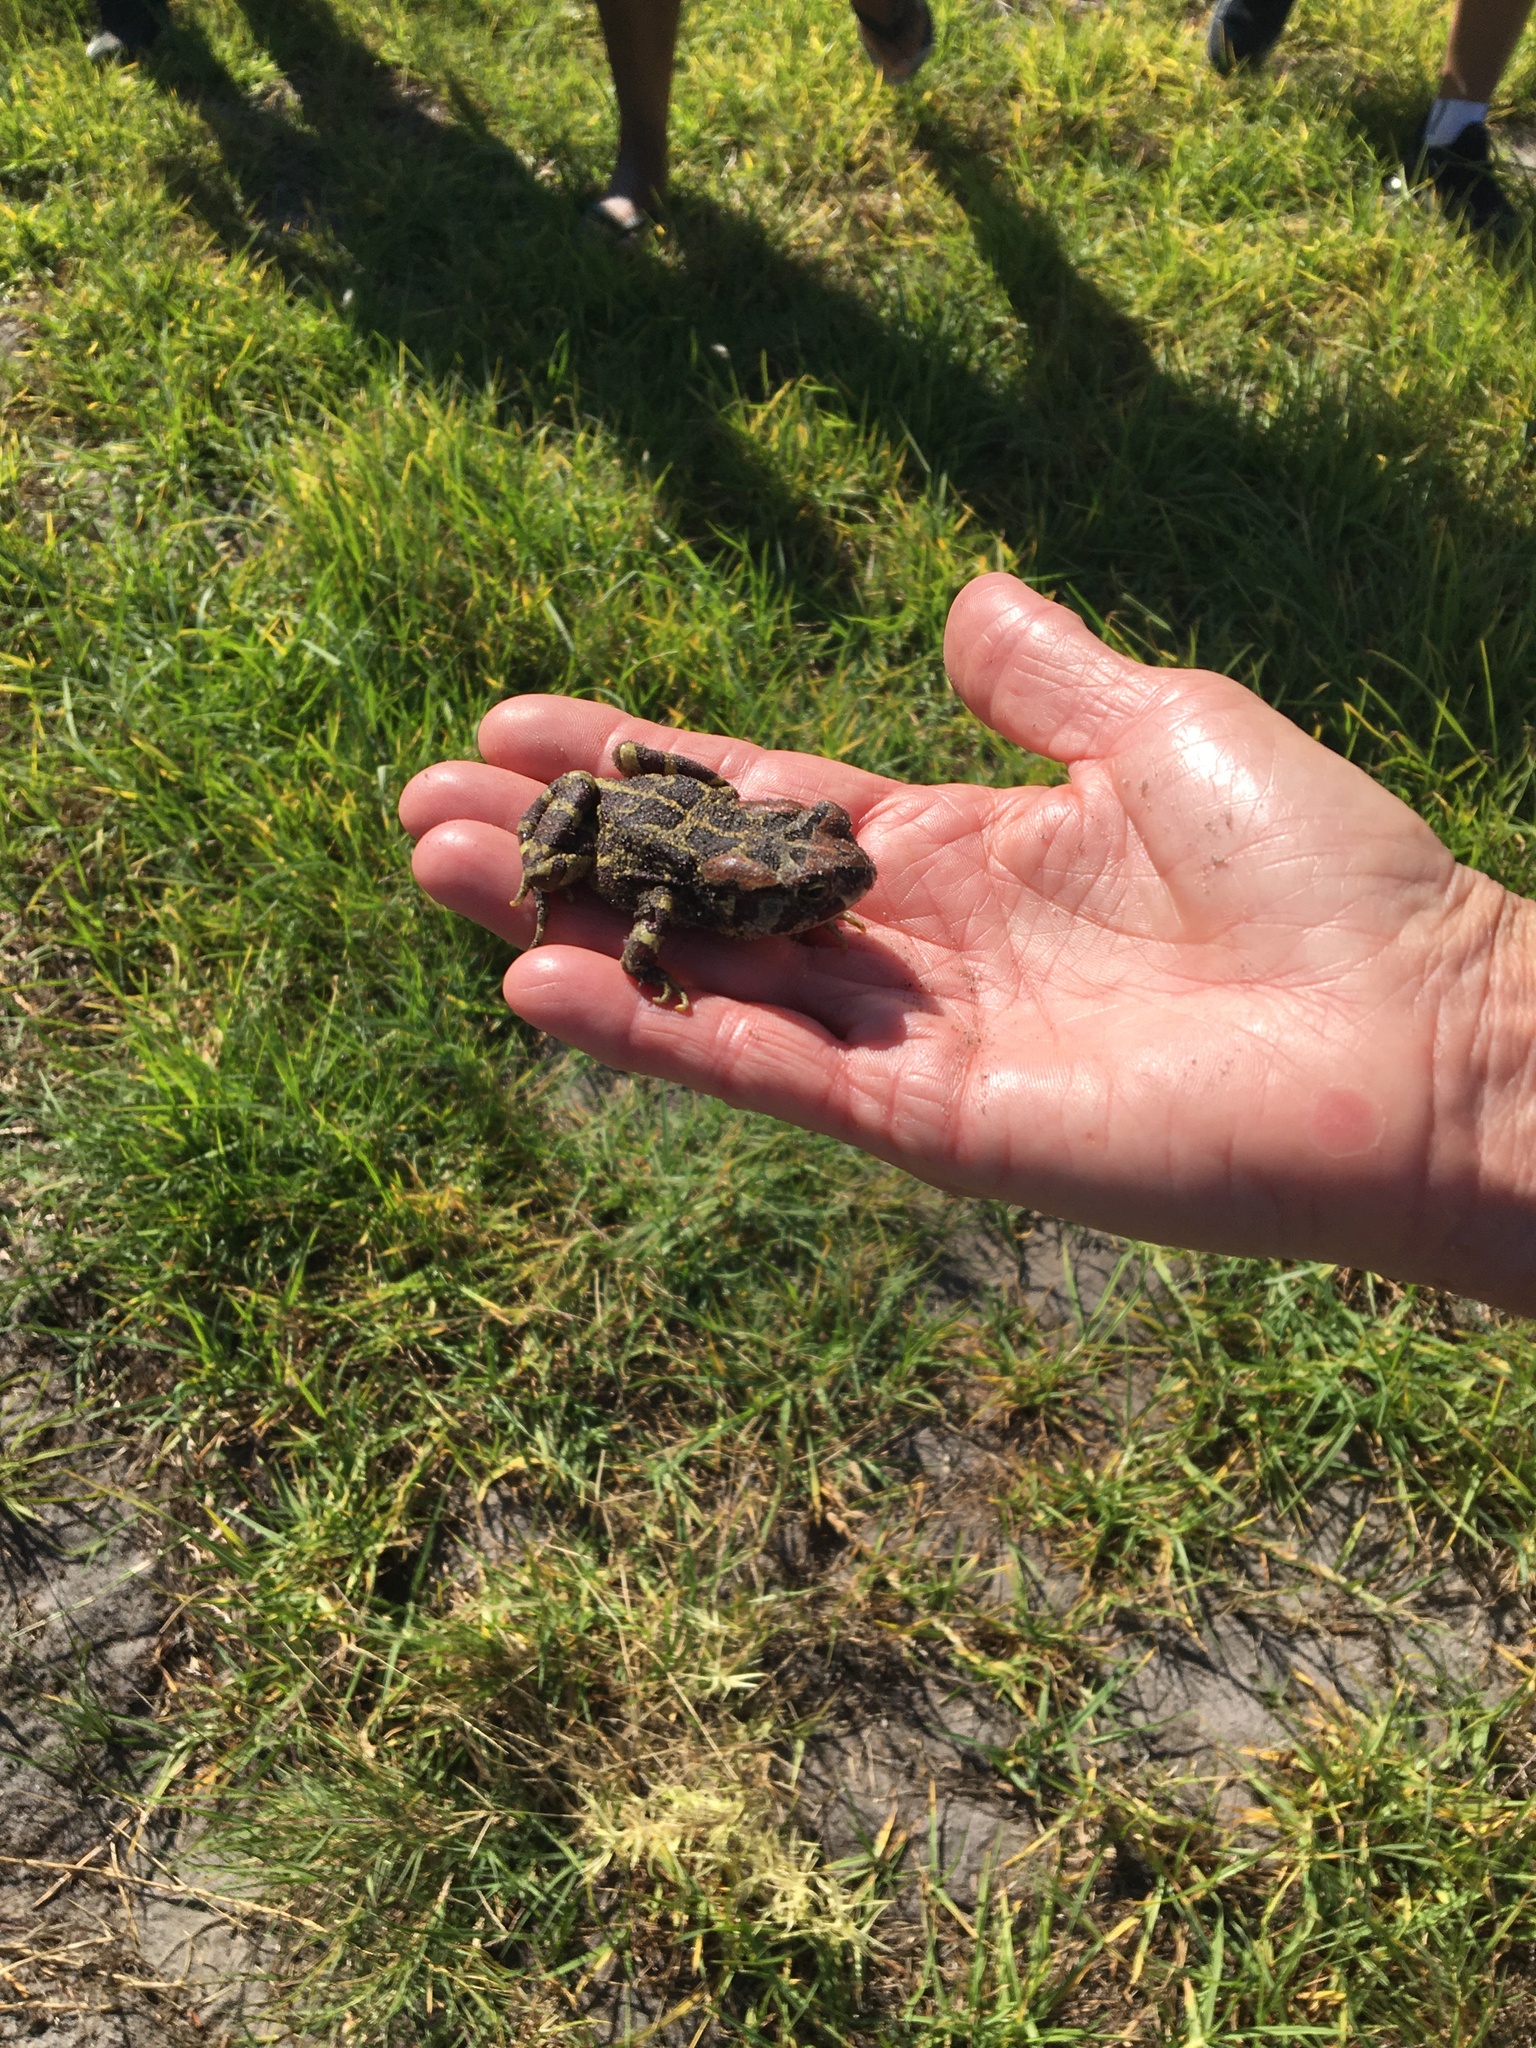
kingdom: Animalia
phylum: Chordata
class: Amphibia
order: Anura
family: Bufonidae
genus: Sclerophrys
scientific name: Sclerophrys pantherina
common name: Panther toad
